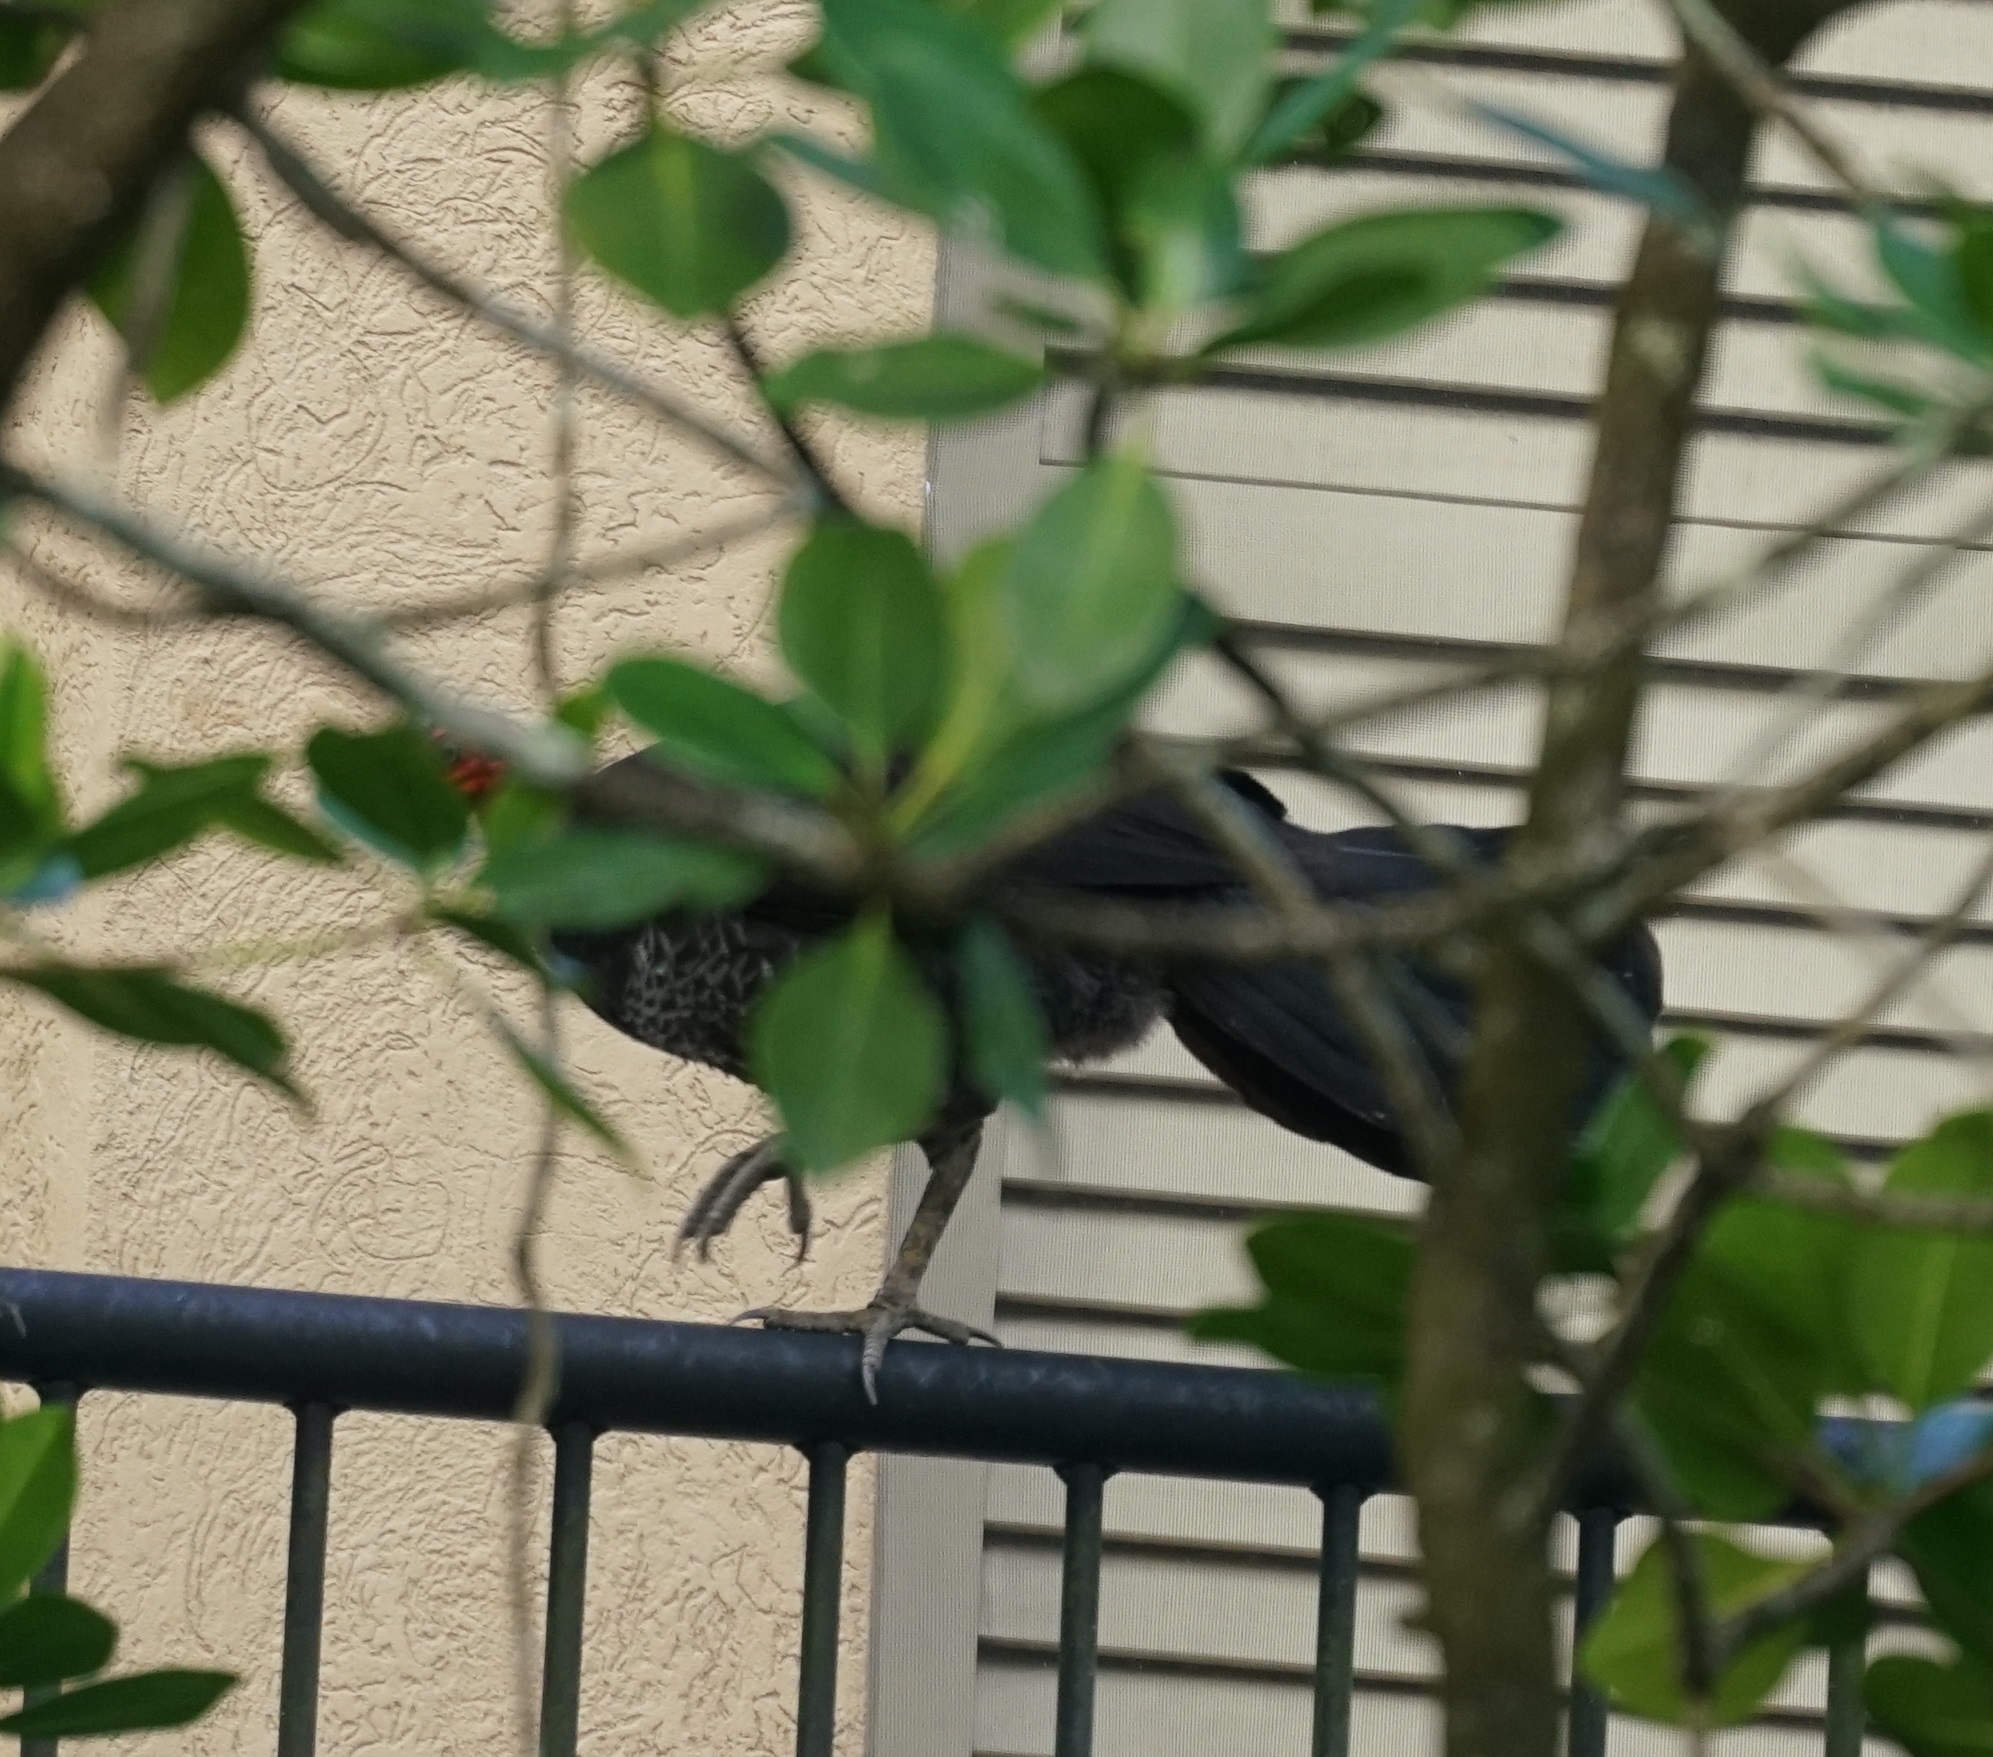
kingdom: Animalia
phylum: Chordata
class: Aves
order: Galliformes
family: Megapodiidae
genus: Alectura
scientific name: Alectura lathami
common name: Australian brushturkey
